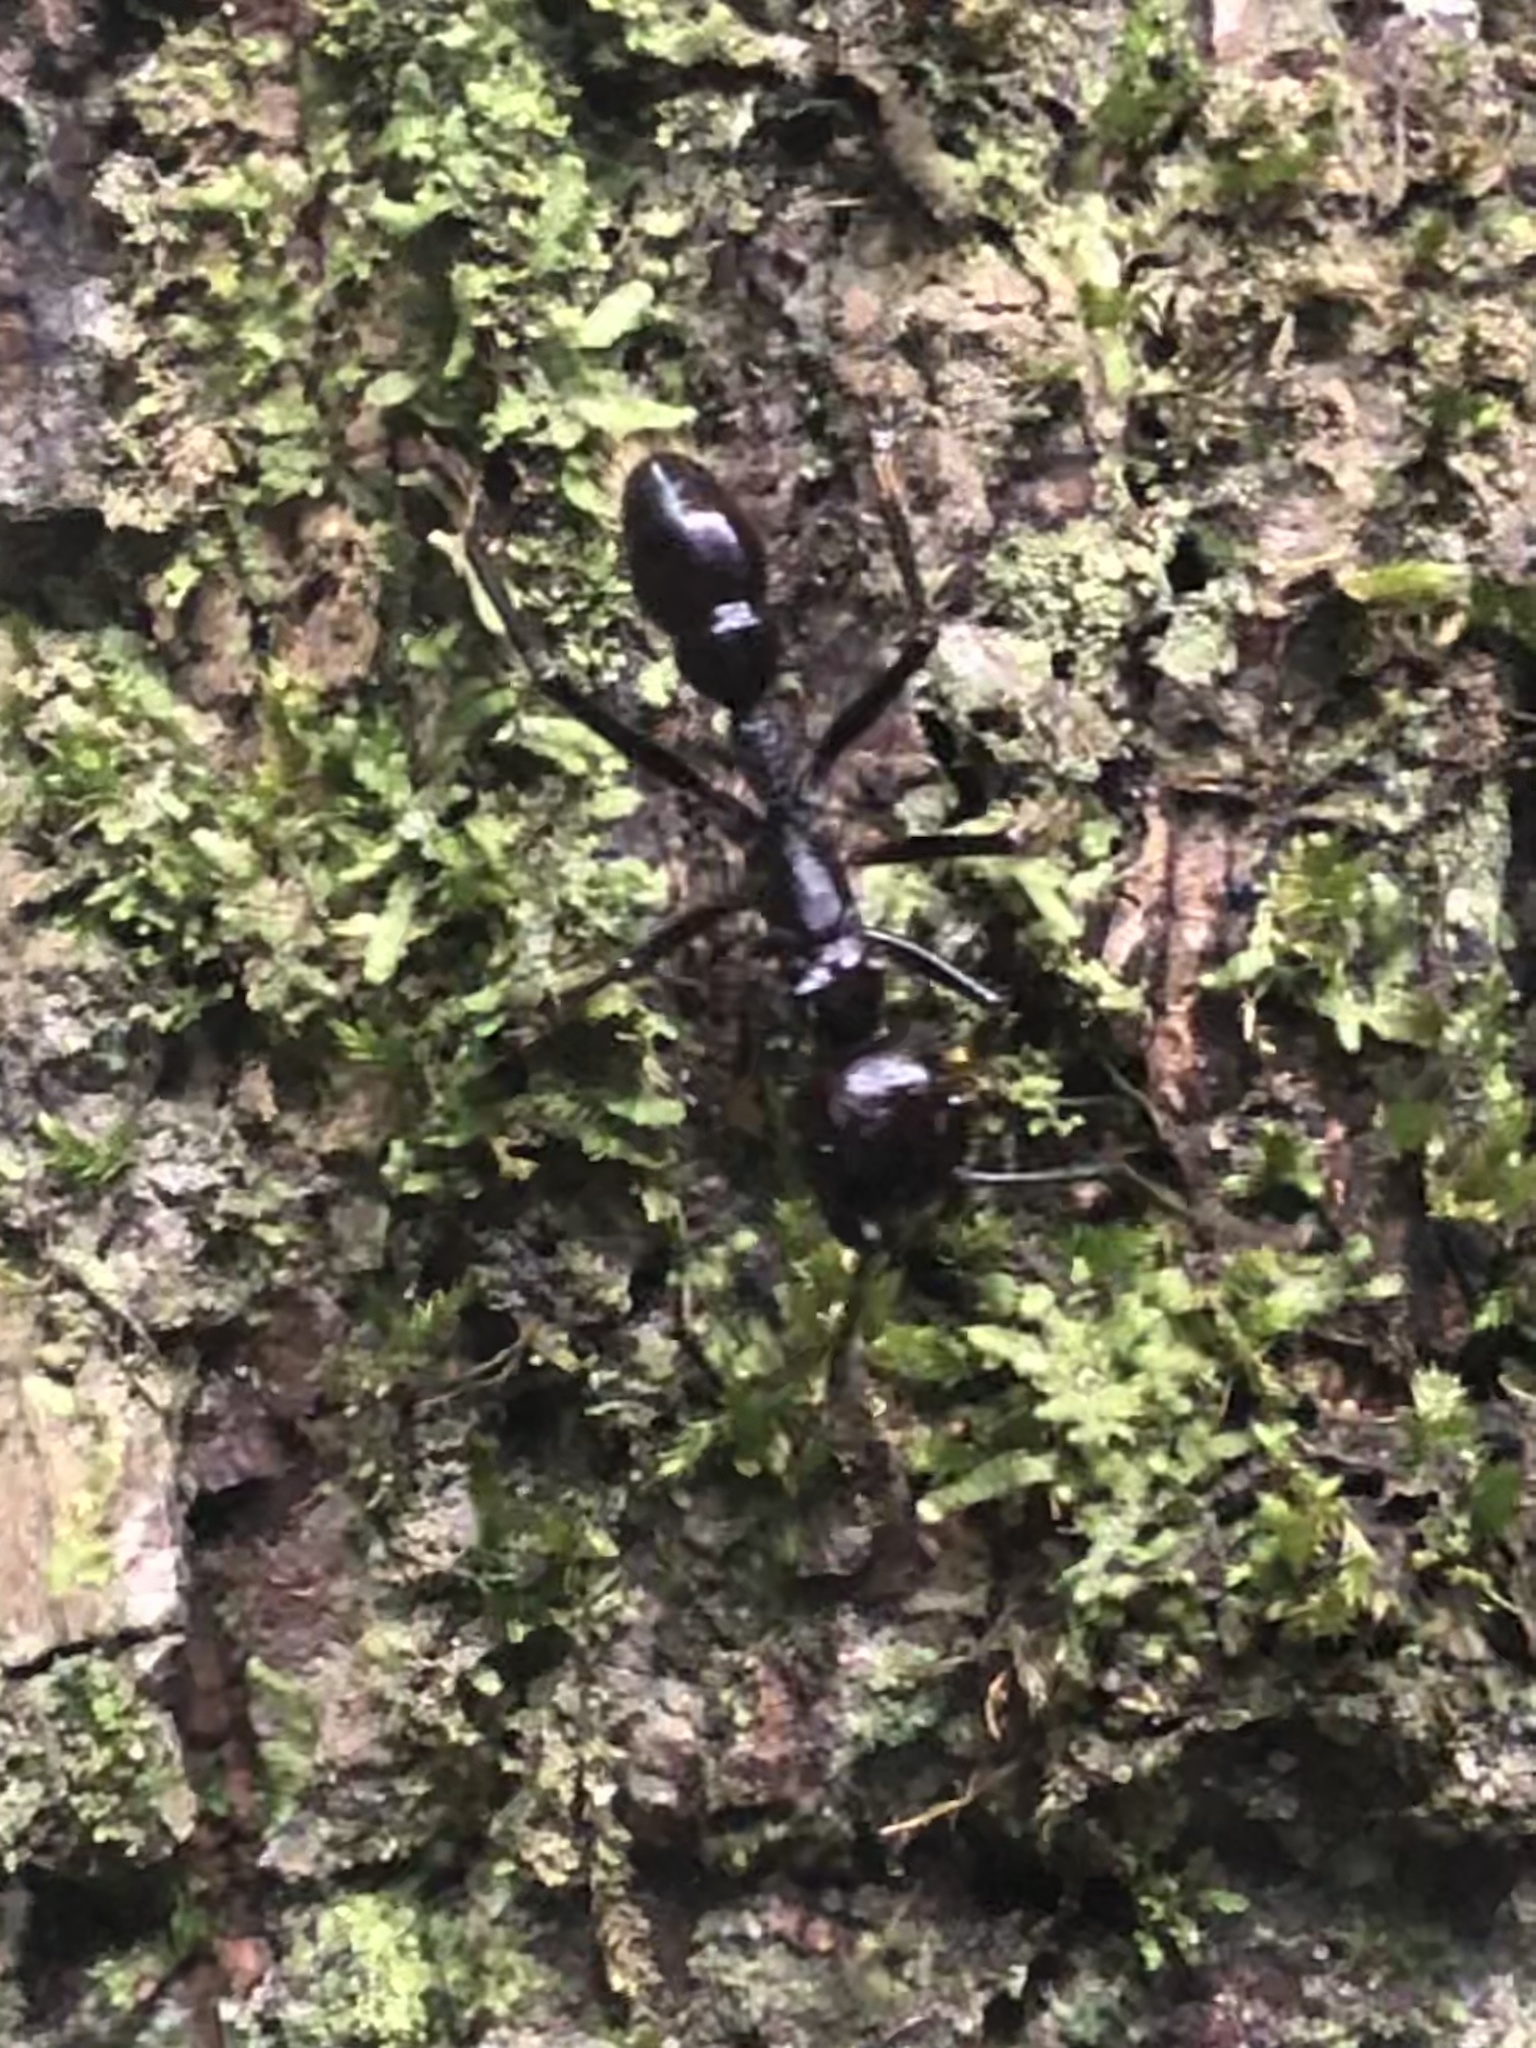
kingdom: Animalia
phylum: Arthropoda
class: Insecta
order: Hymenoptera
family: Formicidae
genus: Paraponera
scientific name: Paraponera clavata
